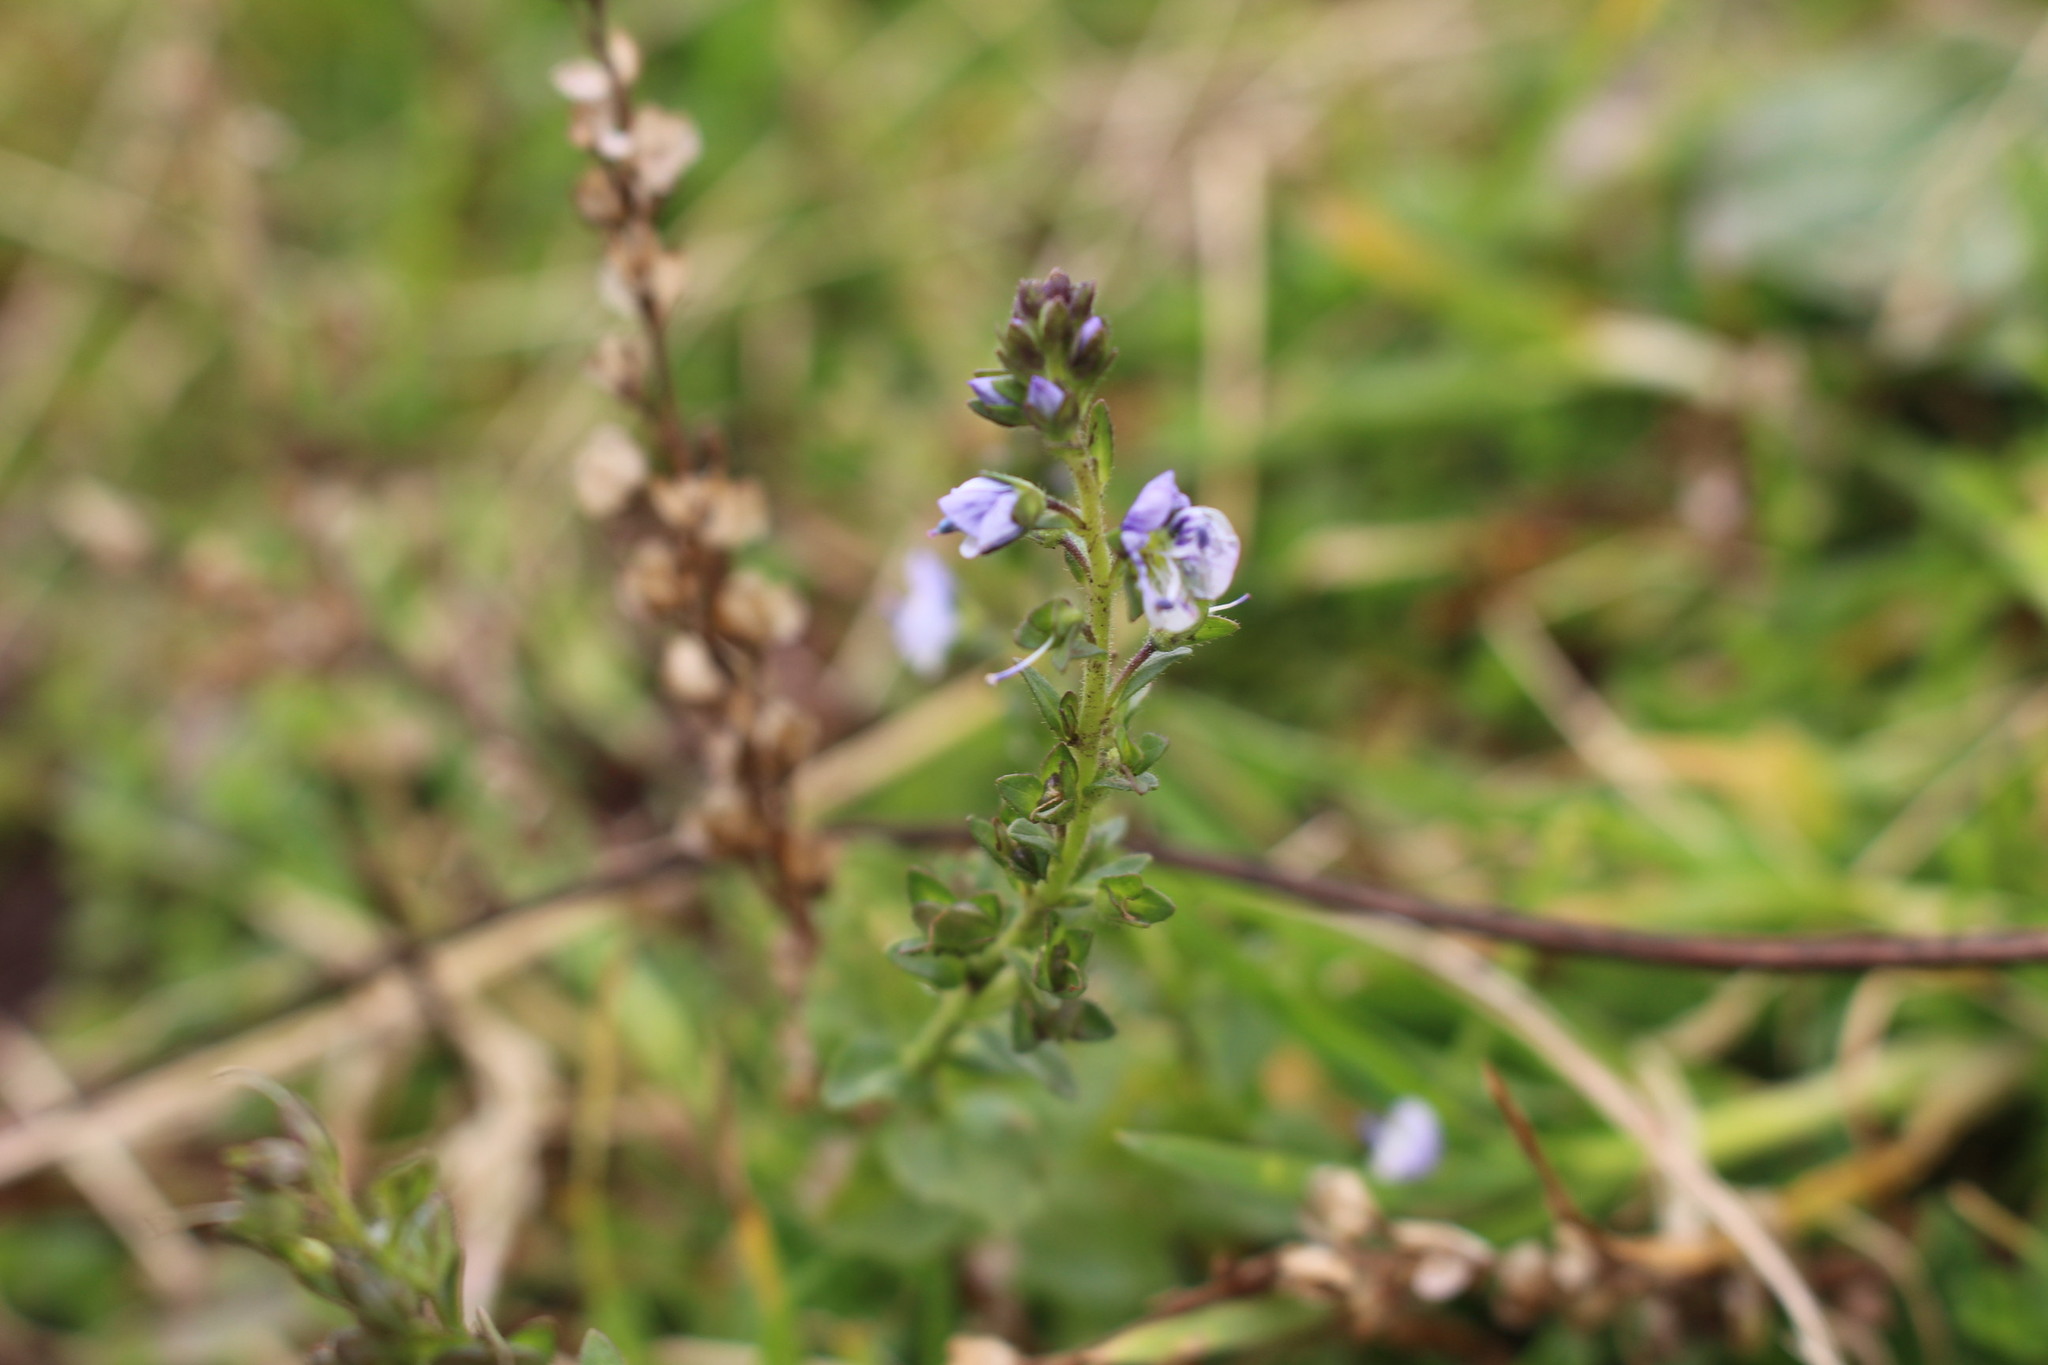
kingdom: Plantae
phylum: Tracheophyta
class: Magnoliopsida
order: Lamiales
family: Plantaginaceae
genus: Veronica
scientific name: Veronica serpyllifolia
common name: Thyme-leaved speedwell
